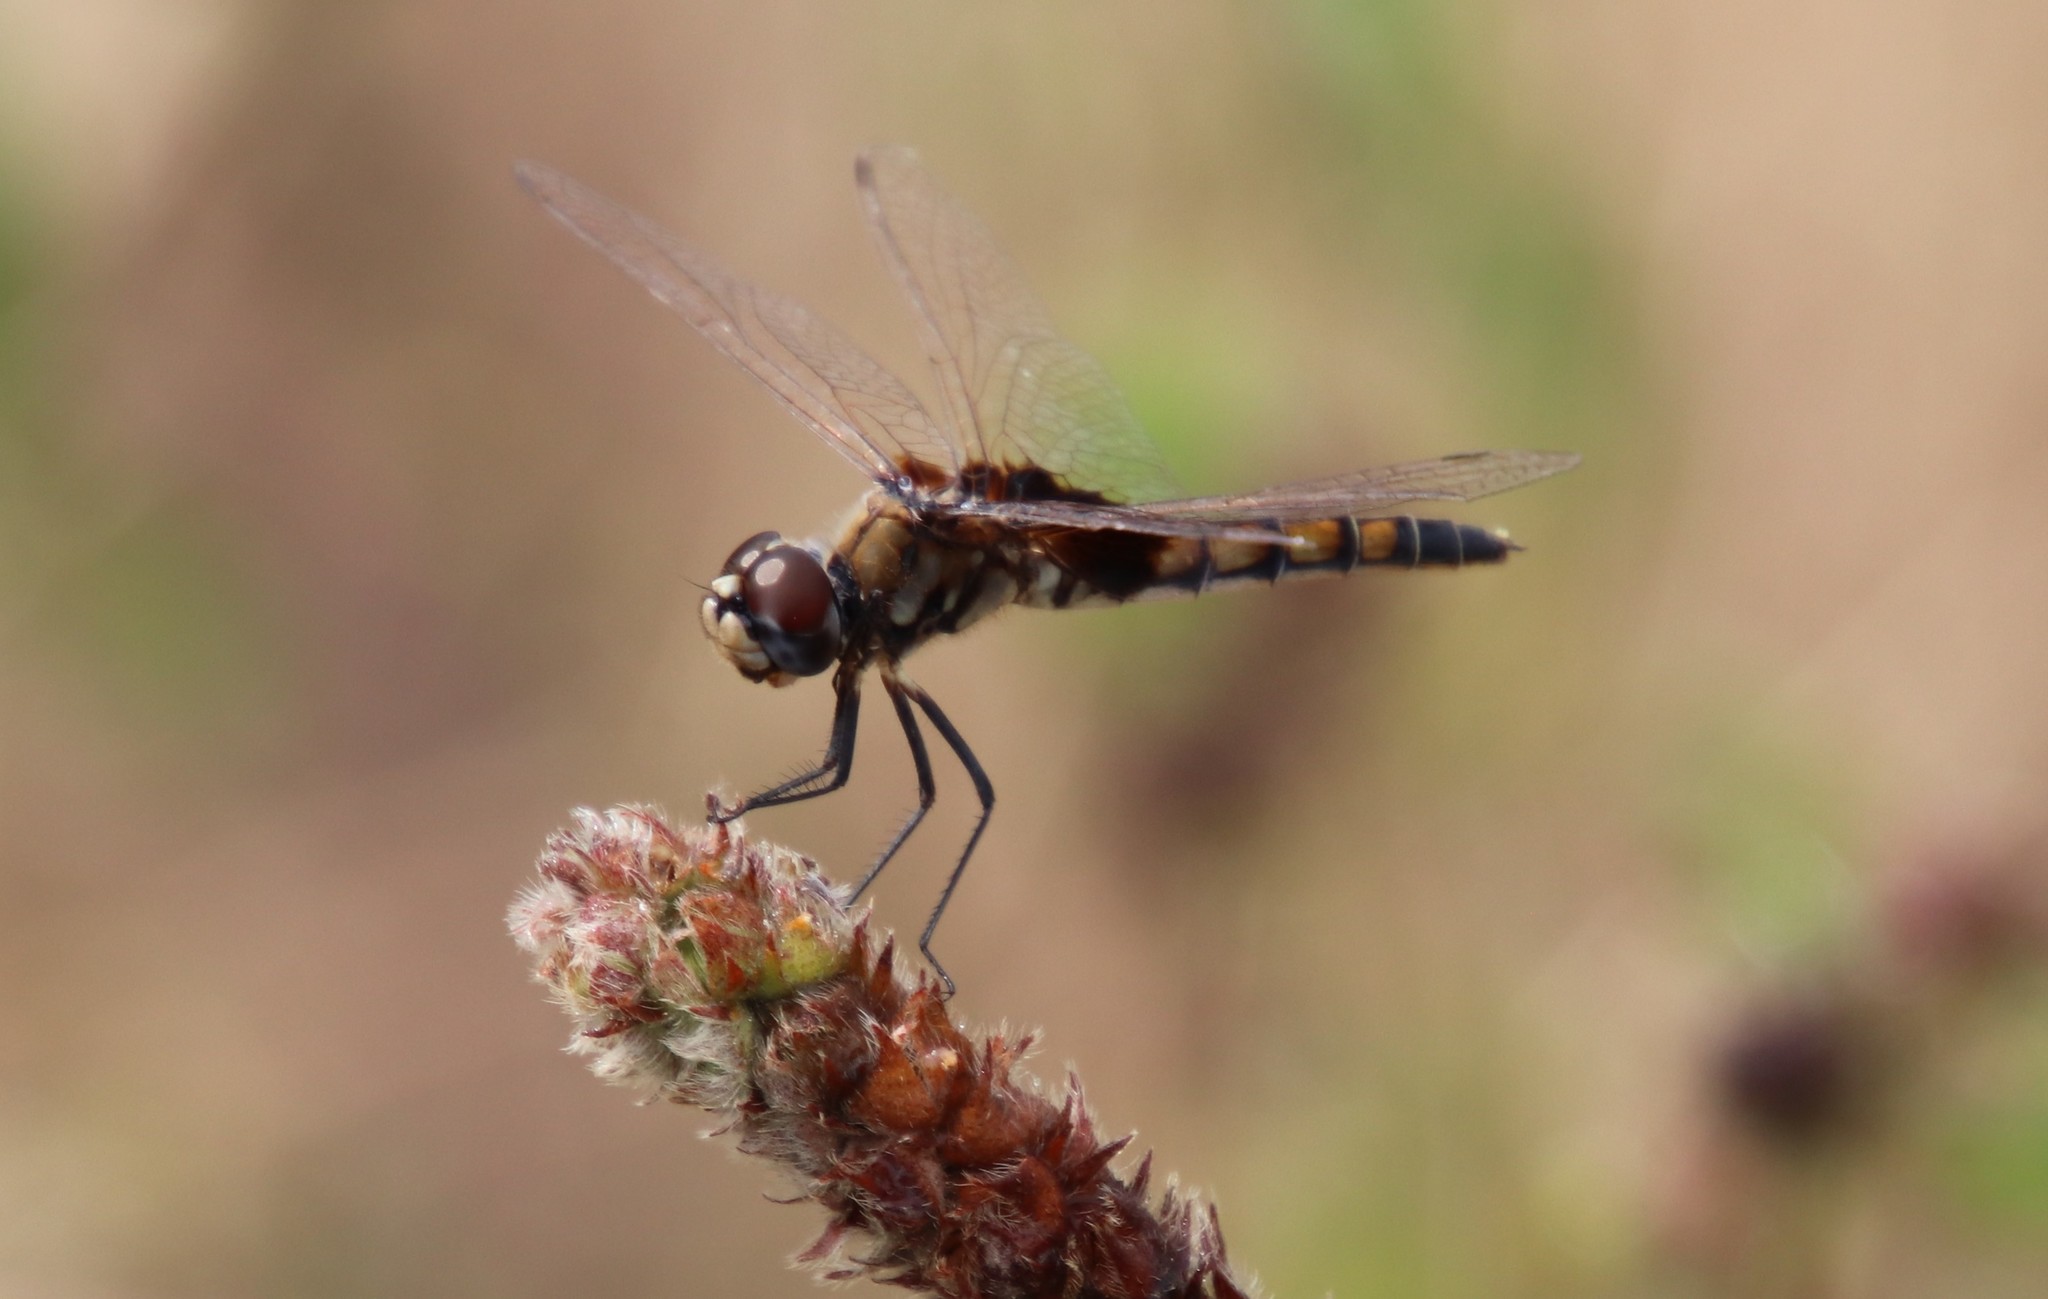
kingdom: Animalia
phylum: Arthropoda
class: Insecta
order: Odonata
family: Libellulidae
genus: Macrodiplax
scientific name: Macrodiplax balteata
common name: Marl pennant
